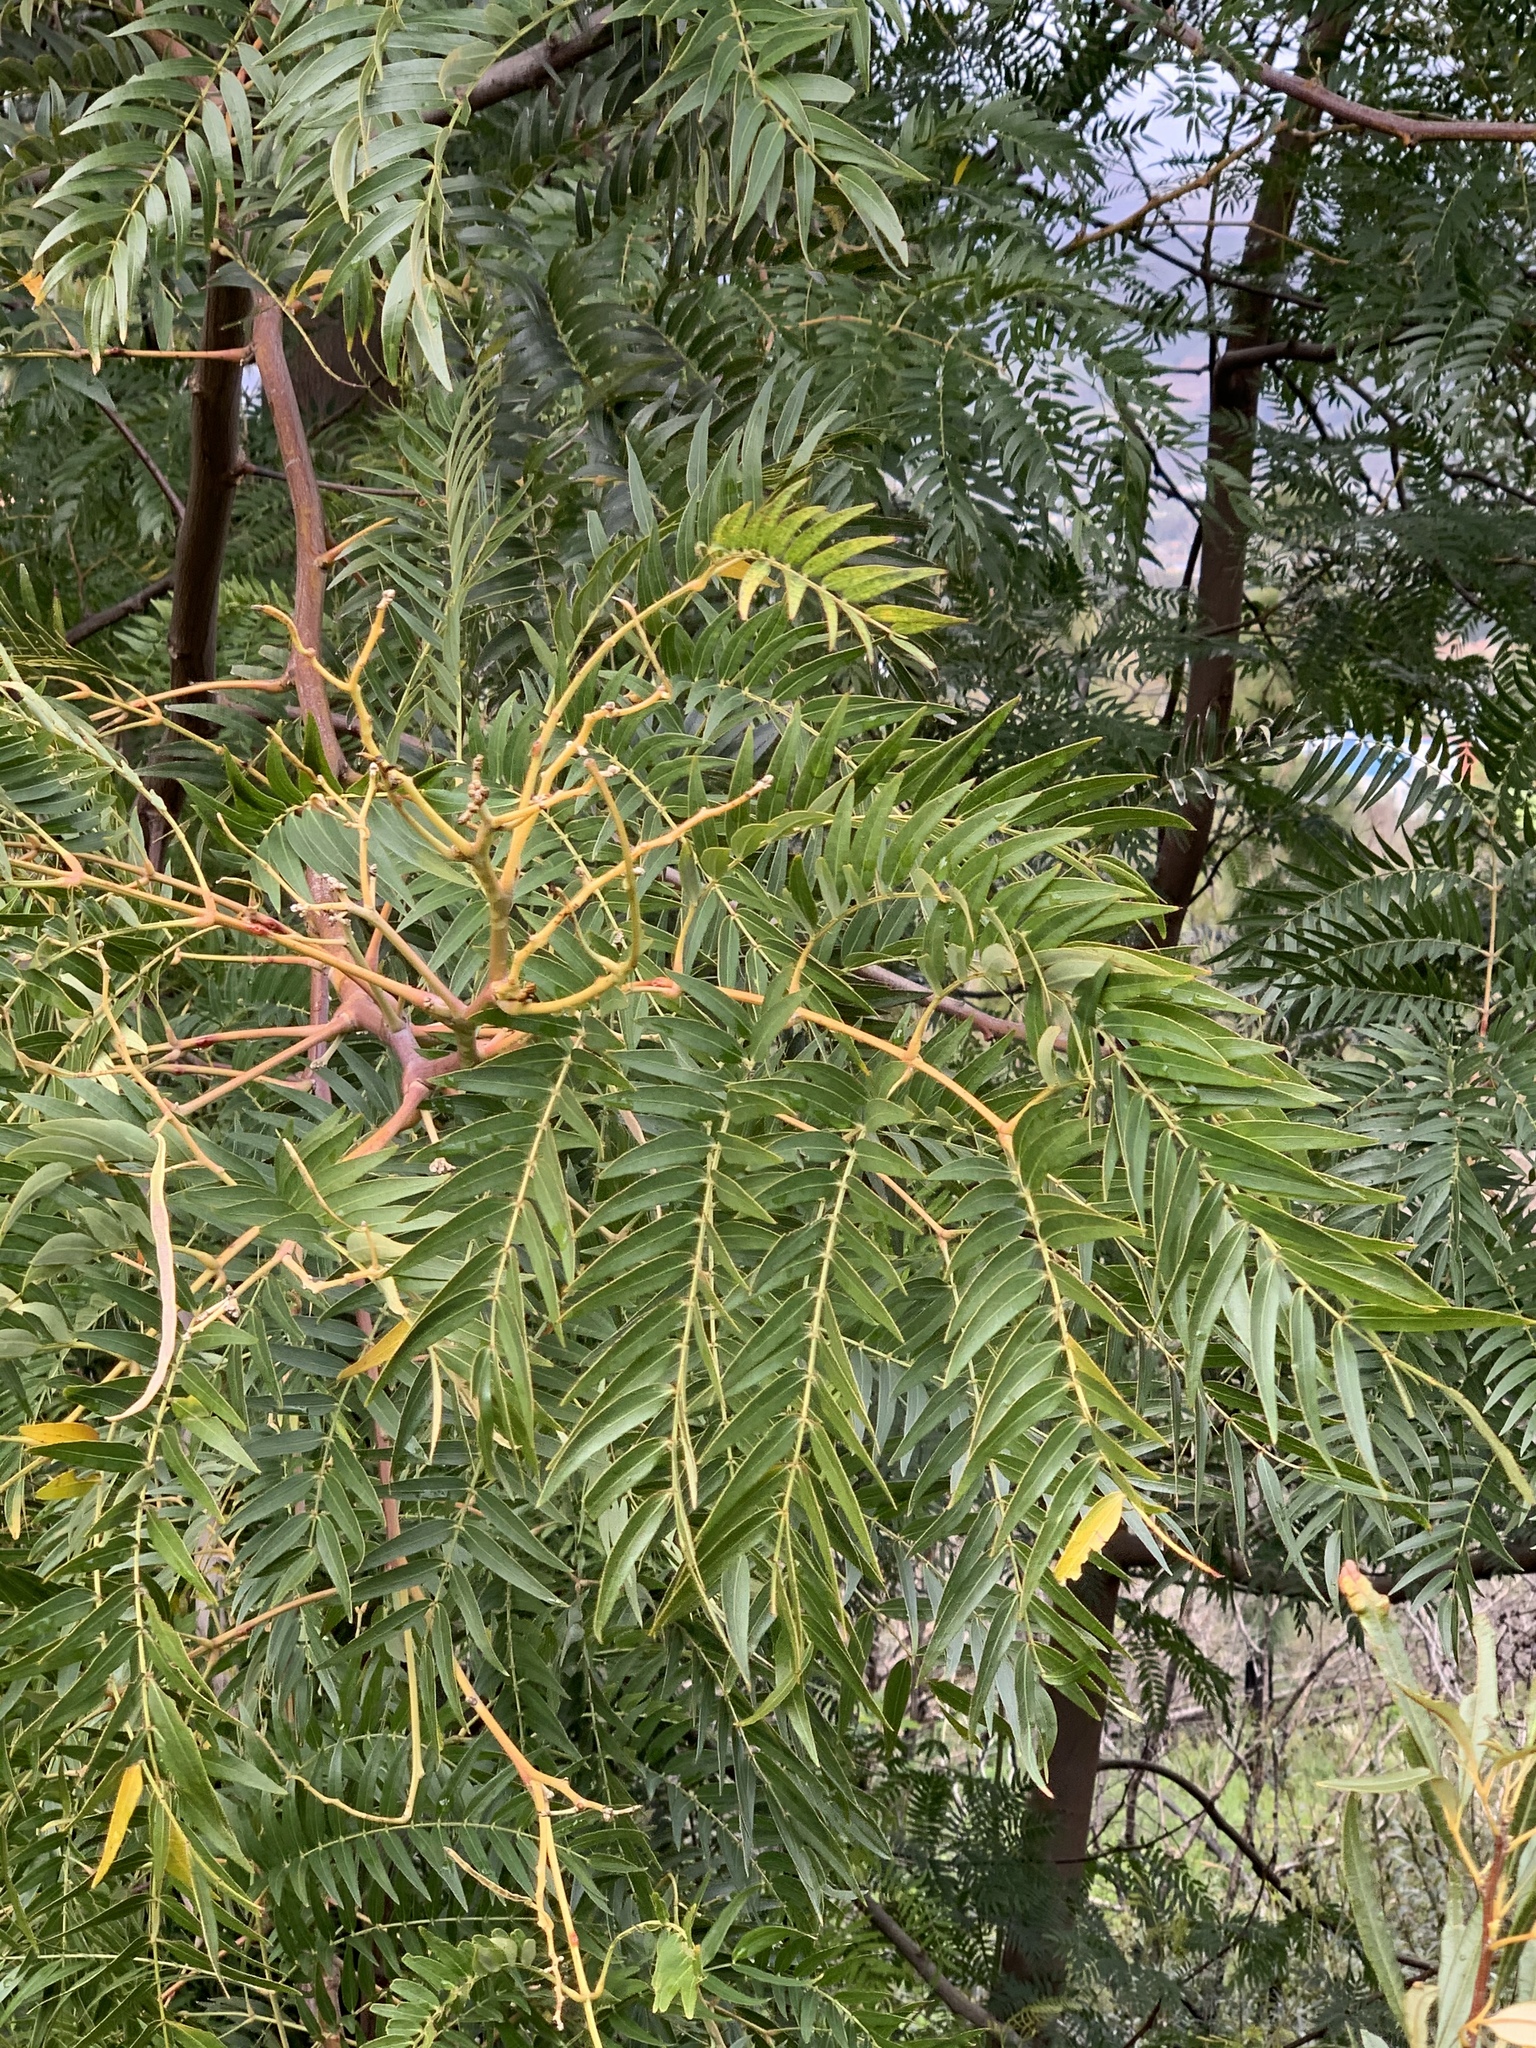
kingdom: Plantae
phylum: Tracheophyta
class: Magnoliopsida
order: Fabales
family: Fabaceae
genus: Acacia
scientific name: Acacia elata
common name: Cedar wattle
